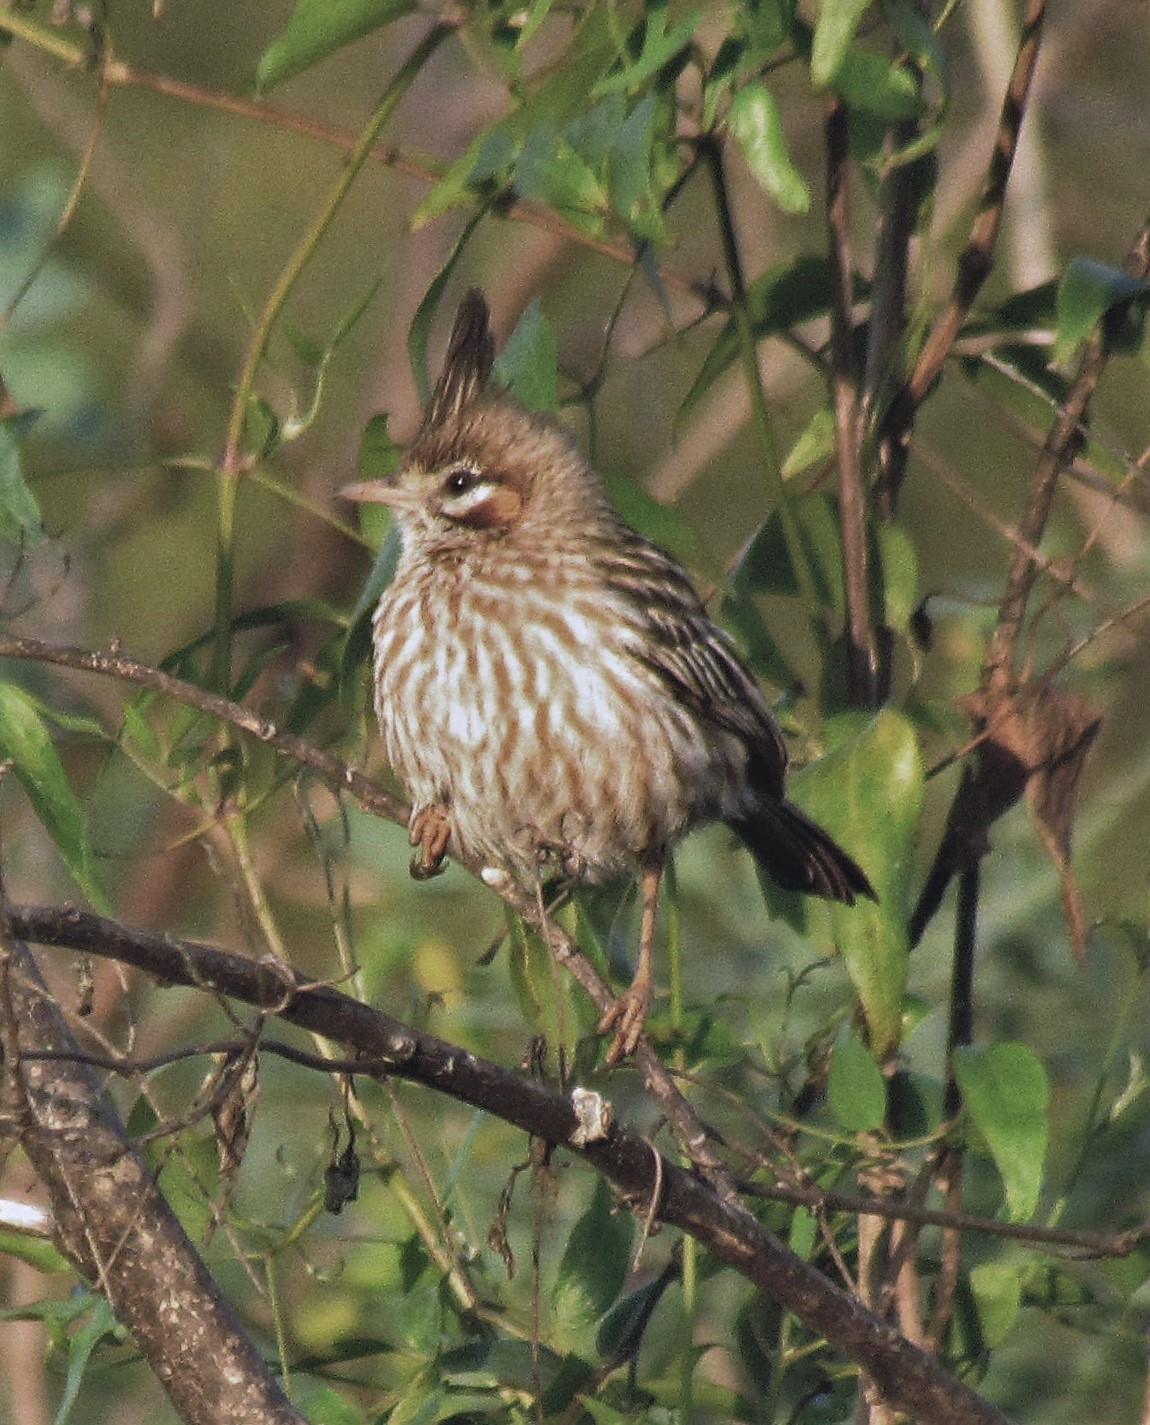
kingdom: Animalia
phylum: Chordata
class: Aves
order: Passeriformes
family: Furnariidae
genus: Coryphistera
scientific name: Coryphistera alaudina
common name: Lark-like brushrunner
